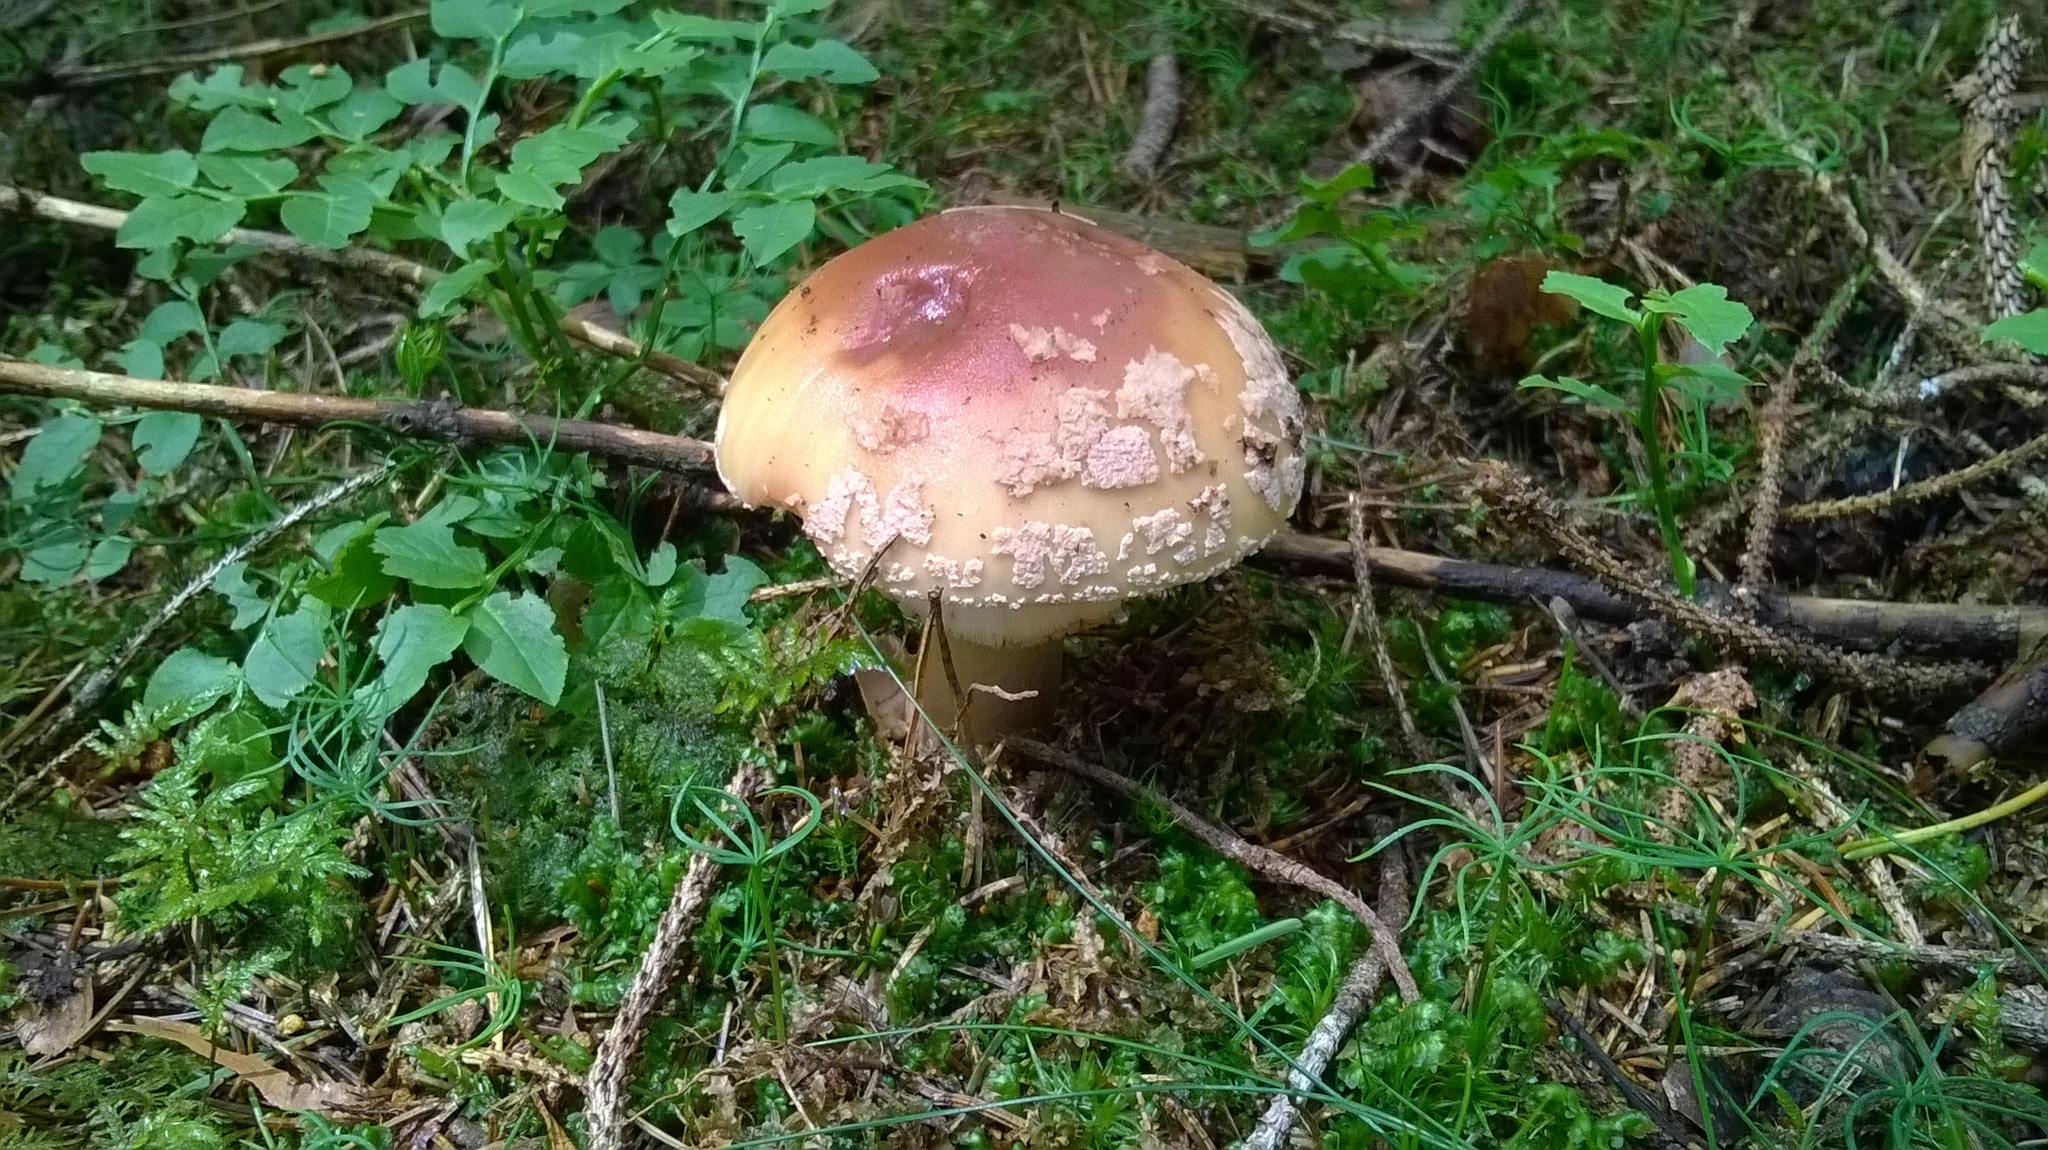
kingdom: Fungi
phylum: Basidiomycota
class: Agaricomycetes
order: Agaricales
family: Amanitaceae
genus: Amanita
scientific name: Amanita rubescens
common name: Blusher
